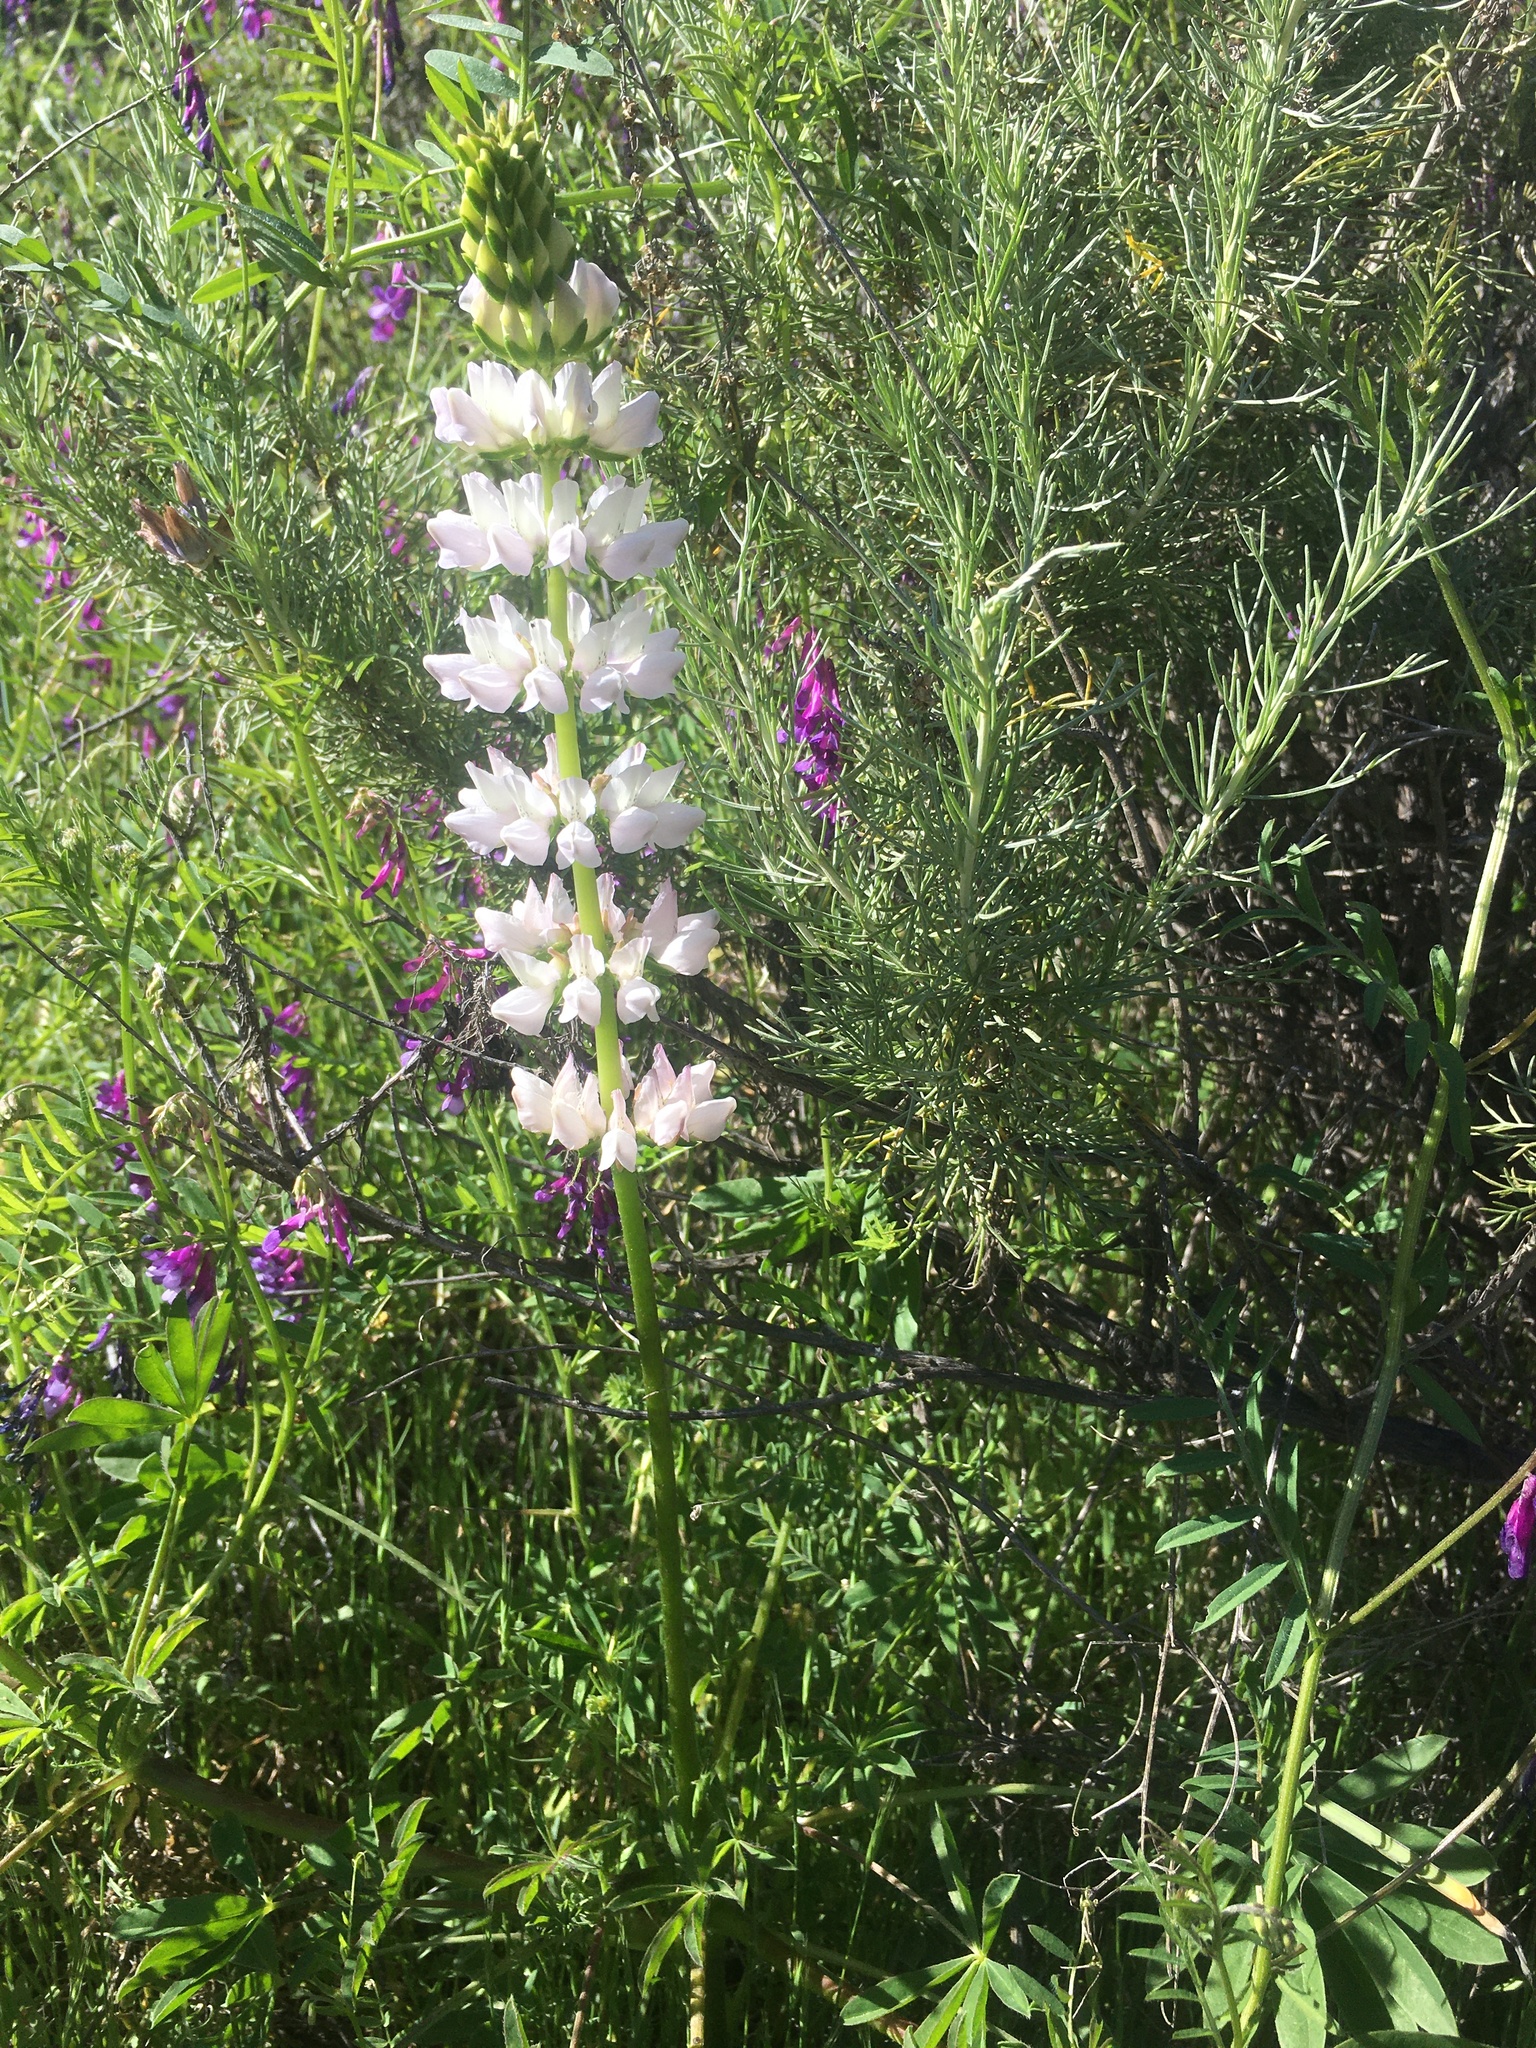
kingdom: Plantae
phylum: Tracheophyta
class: Magnoliopsida
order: Fabales
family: Fabaceae
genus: Lupinus
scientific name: Lupinus microcarpus
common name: Chick lupine
